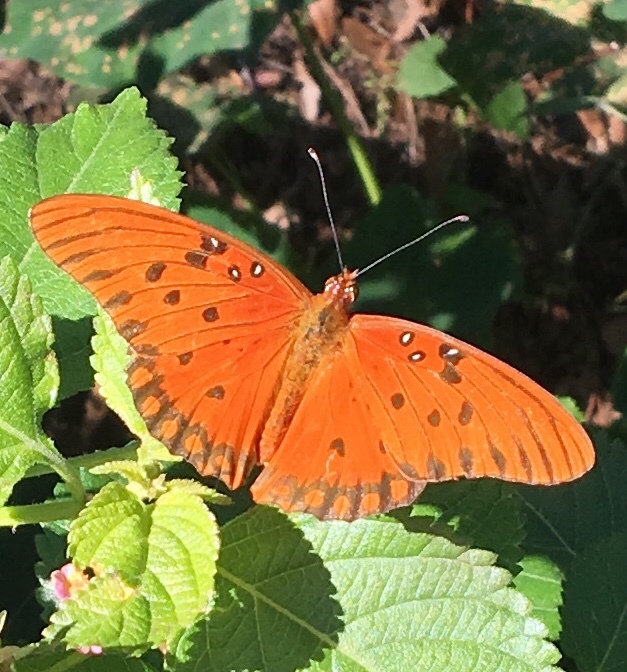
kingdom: Animalia
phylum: Arthropoda
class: Insecta
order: Lepidoptera
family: Nymphalidae
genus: Dione
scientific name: Dione vanillae
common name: Gulf fritillary
